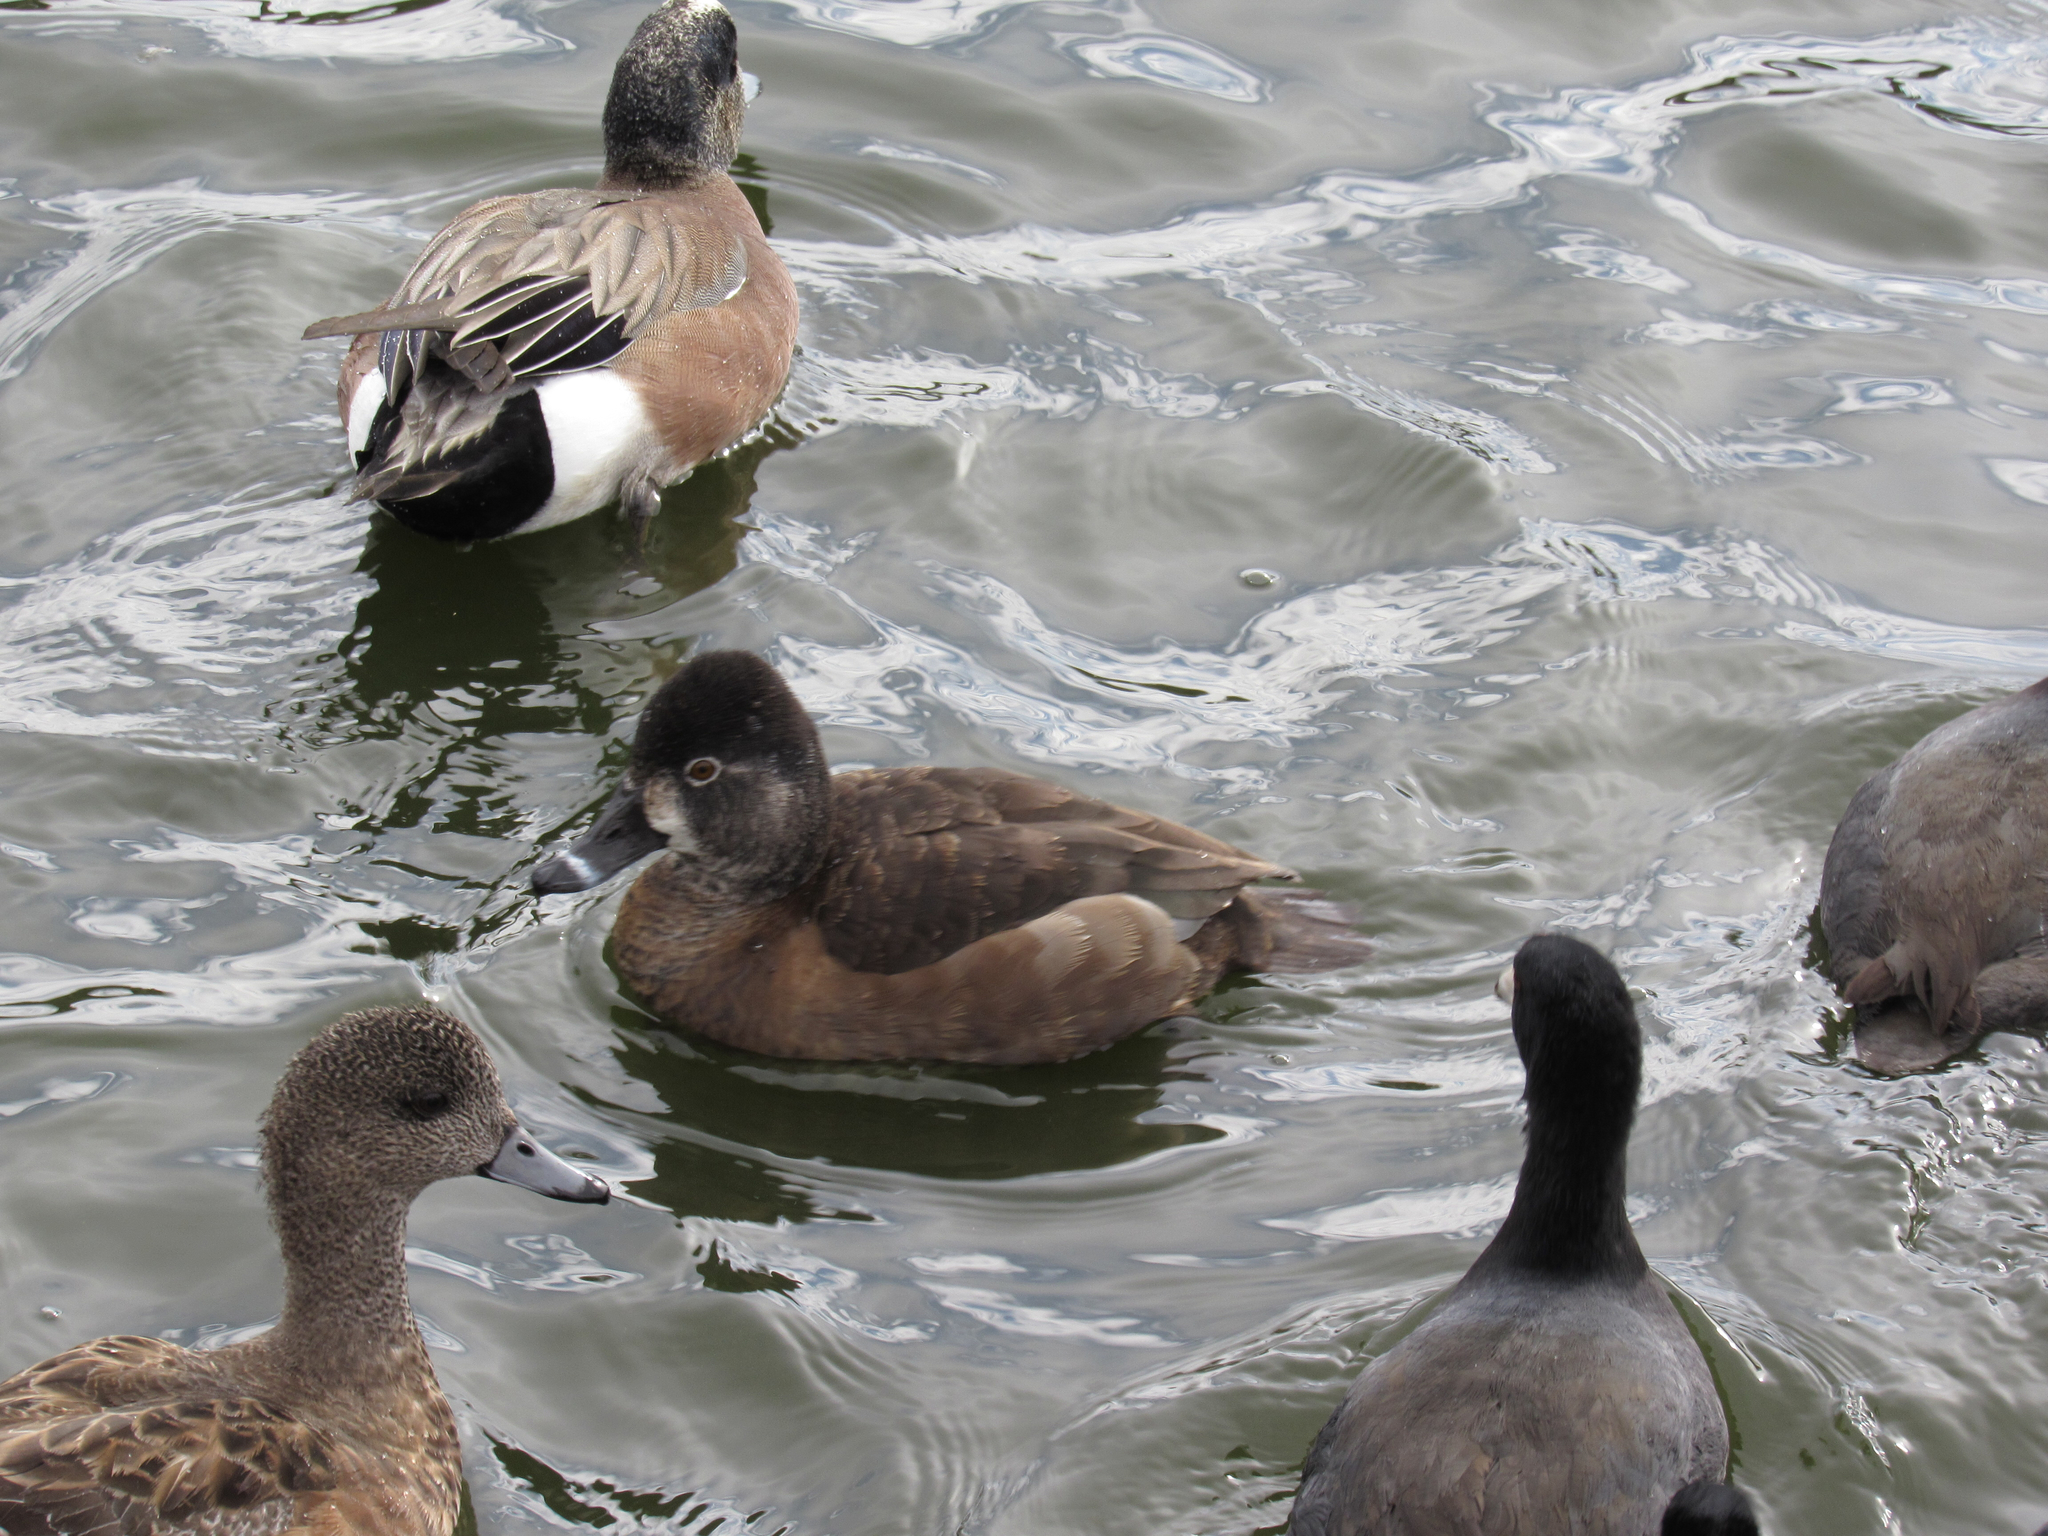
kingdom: Animalia
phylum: Chordata
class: Aves
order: Anseriformes
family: Anatidae
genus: Aythya
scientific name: Aythya collaris
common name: Ring-necked duck
